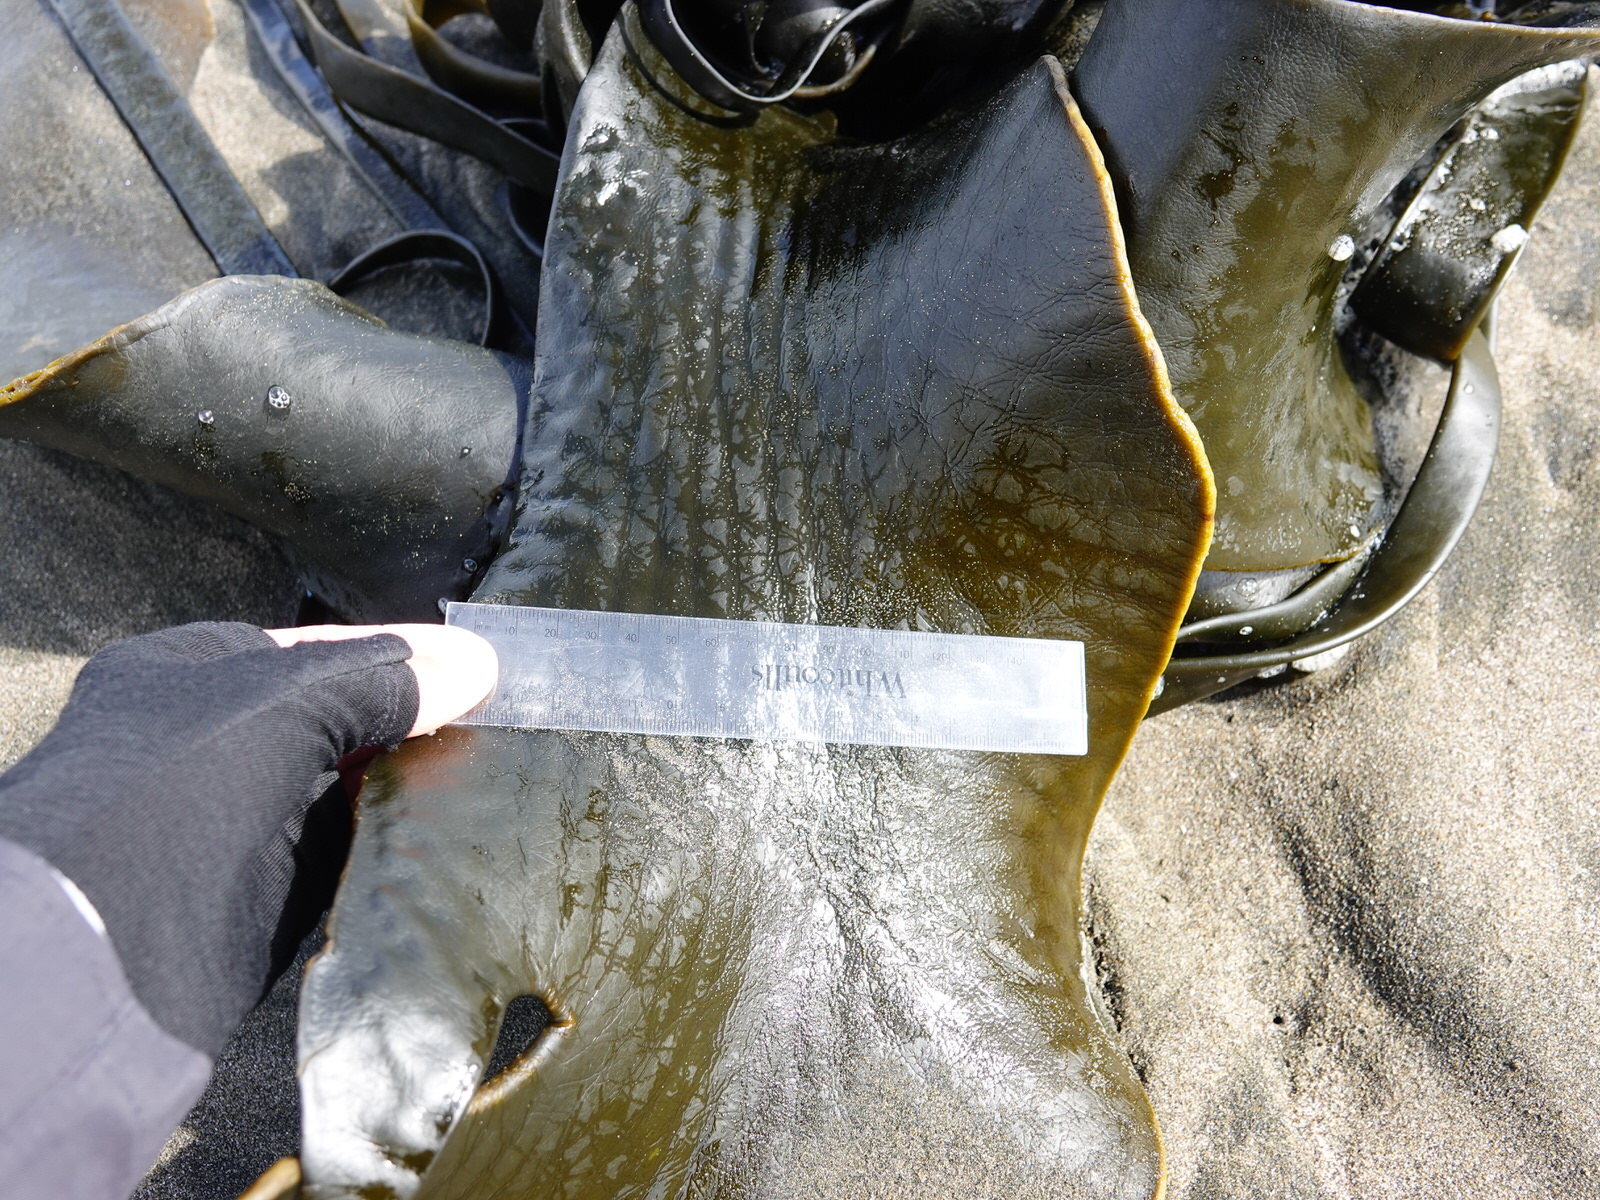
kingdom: Chromista
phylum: Ochrophyta
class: Phaeophyceae
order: Fucales
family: Durvillaeaceae
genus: Durvillaea
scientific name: Durvillaea antarctica
